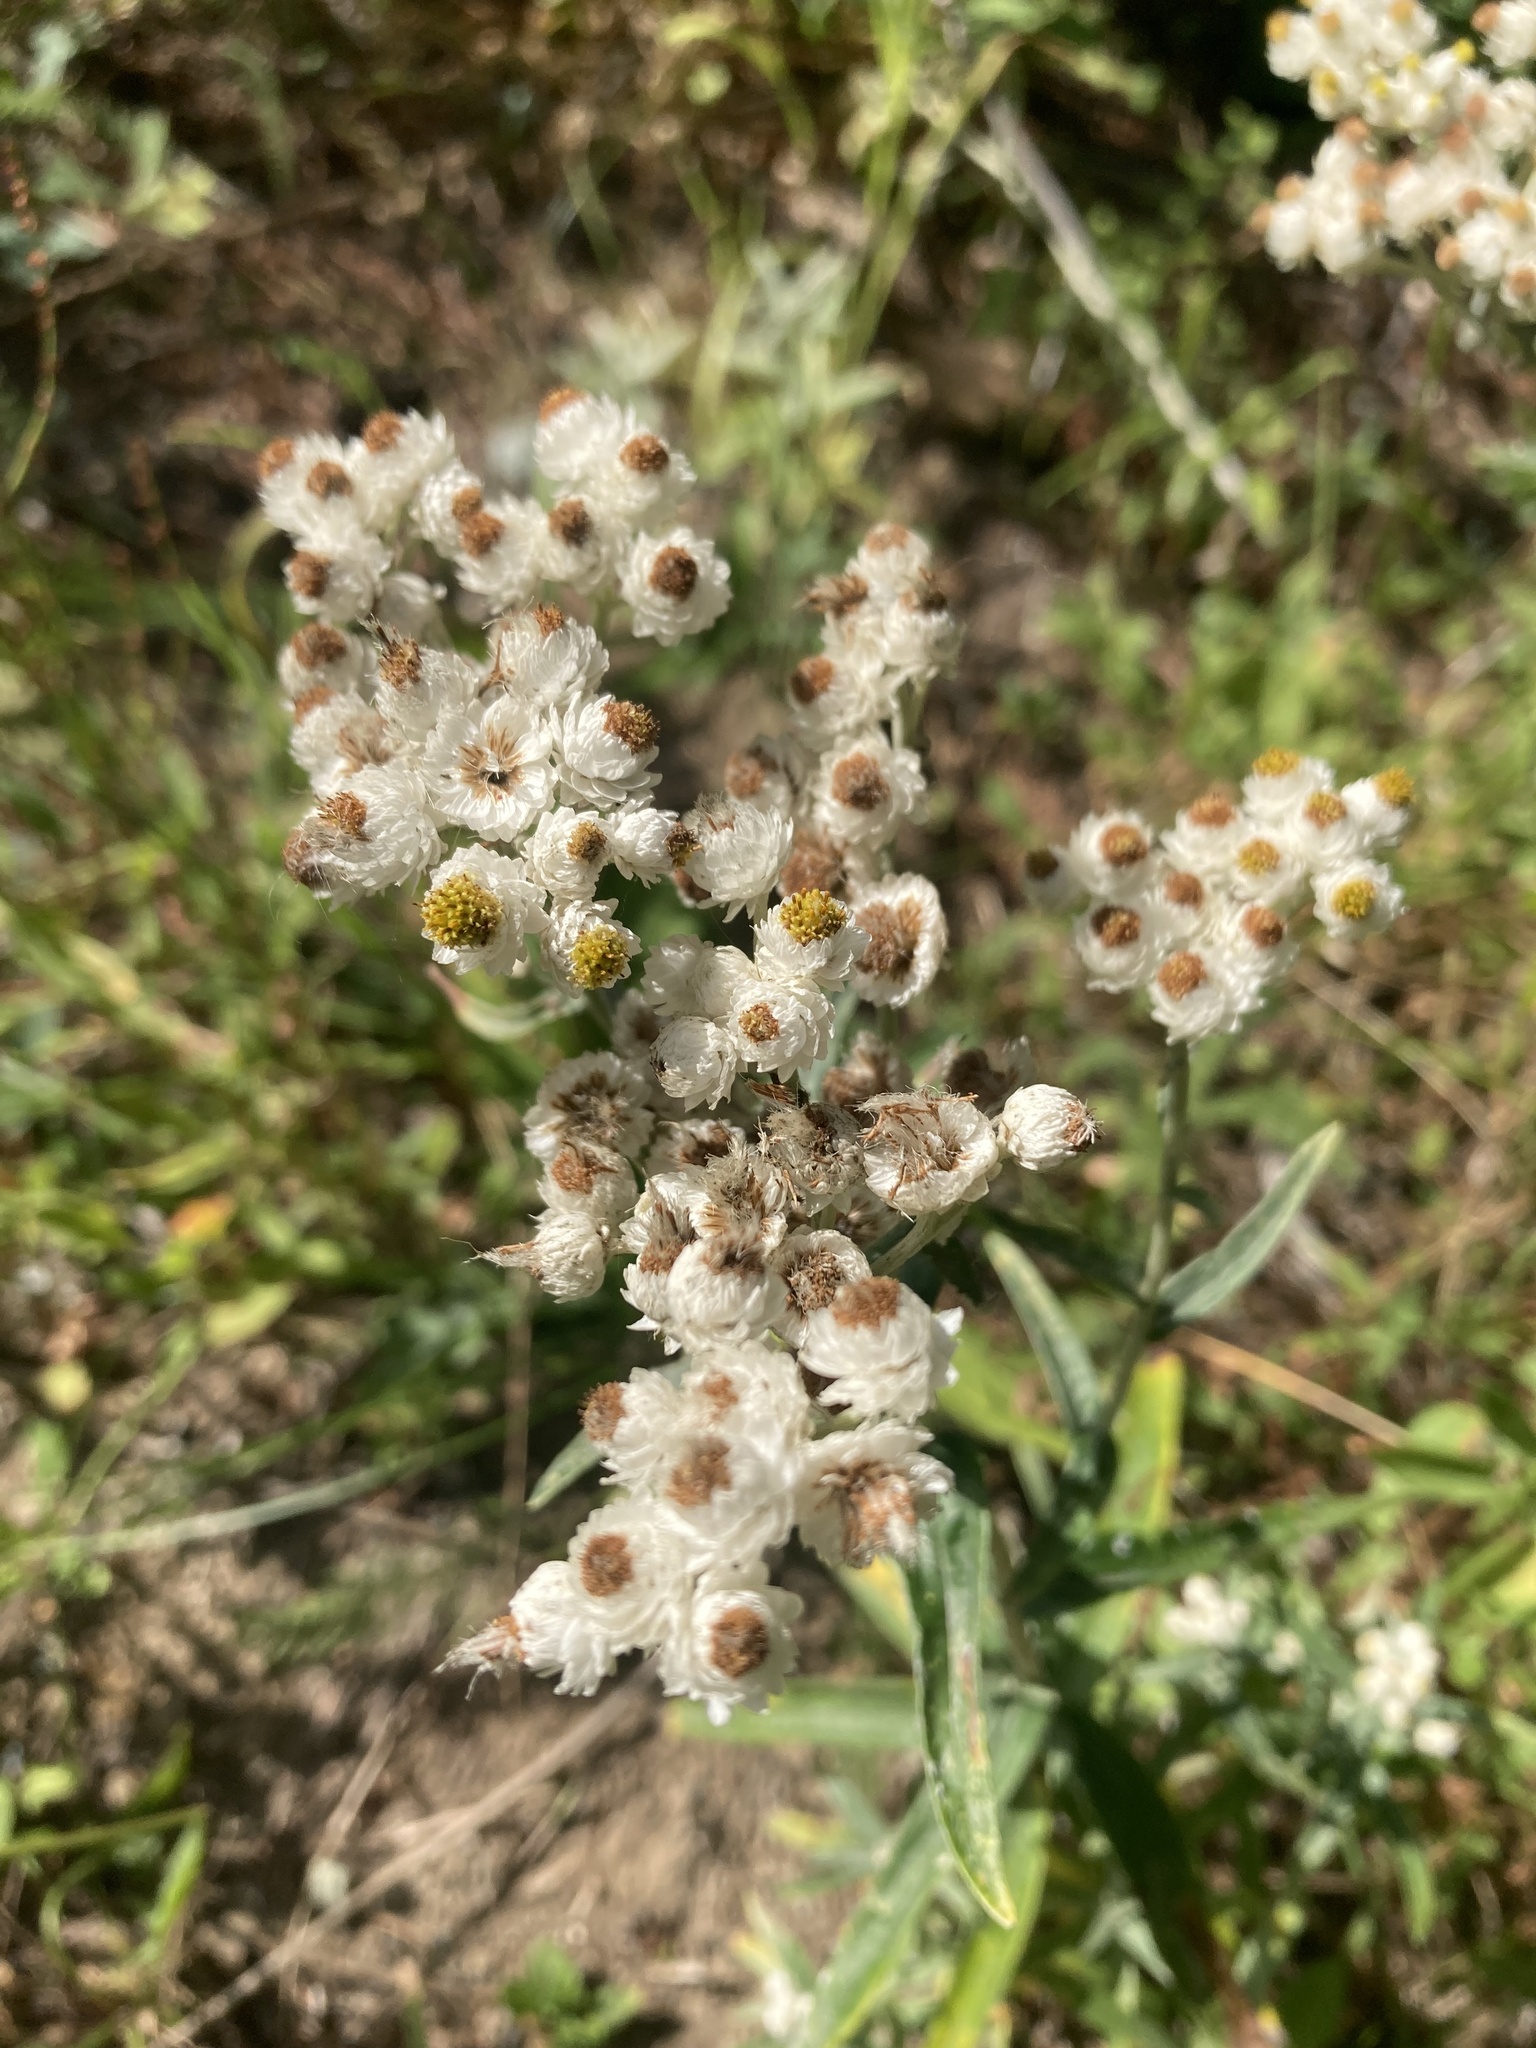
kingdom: Plantae
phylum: Tracheophyta
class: Magnoliopsida
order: Asterales
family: Asteraceae
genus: Anaphalis
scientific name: Anaphalis margaritacea
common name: Pearly everlasting
